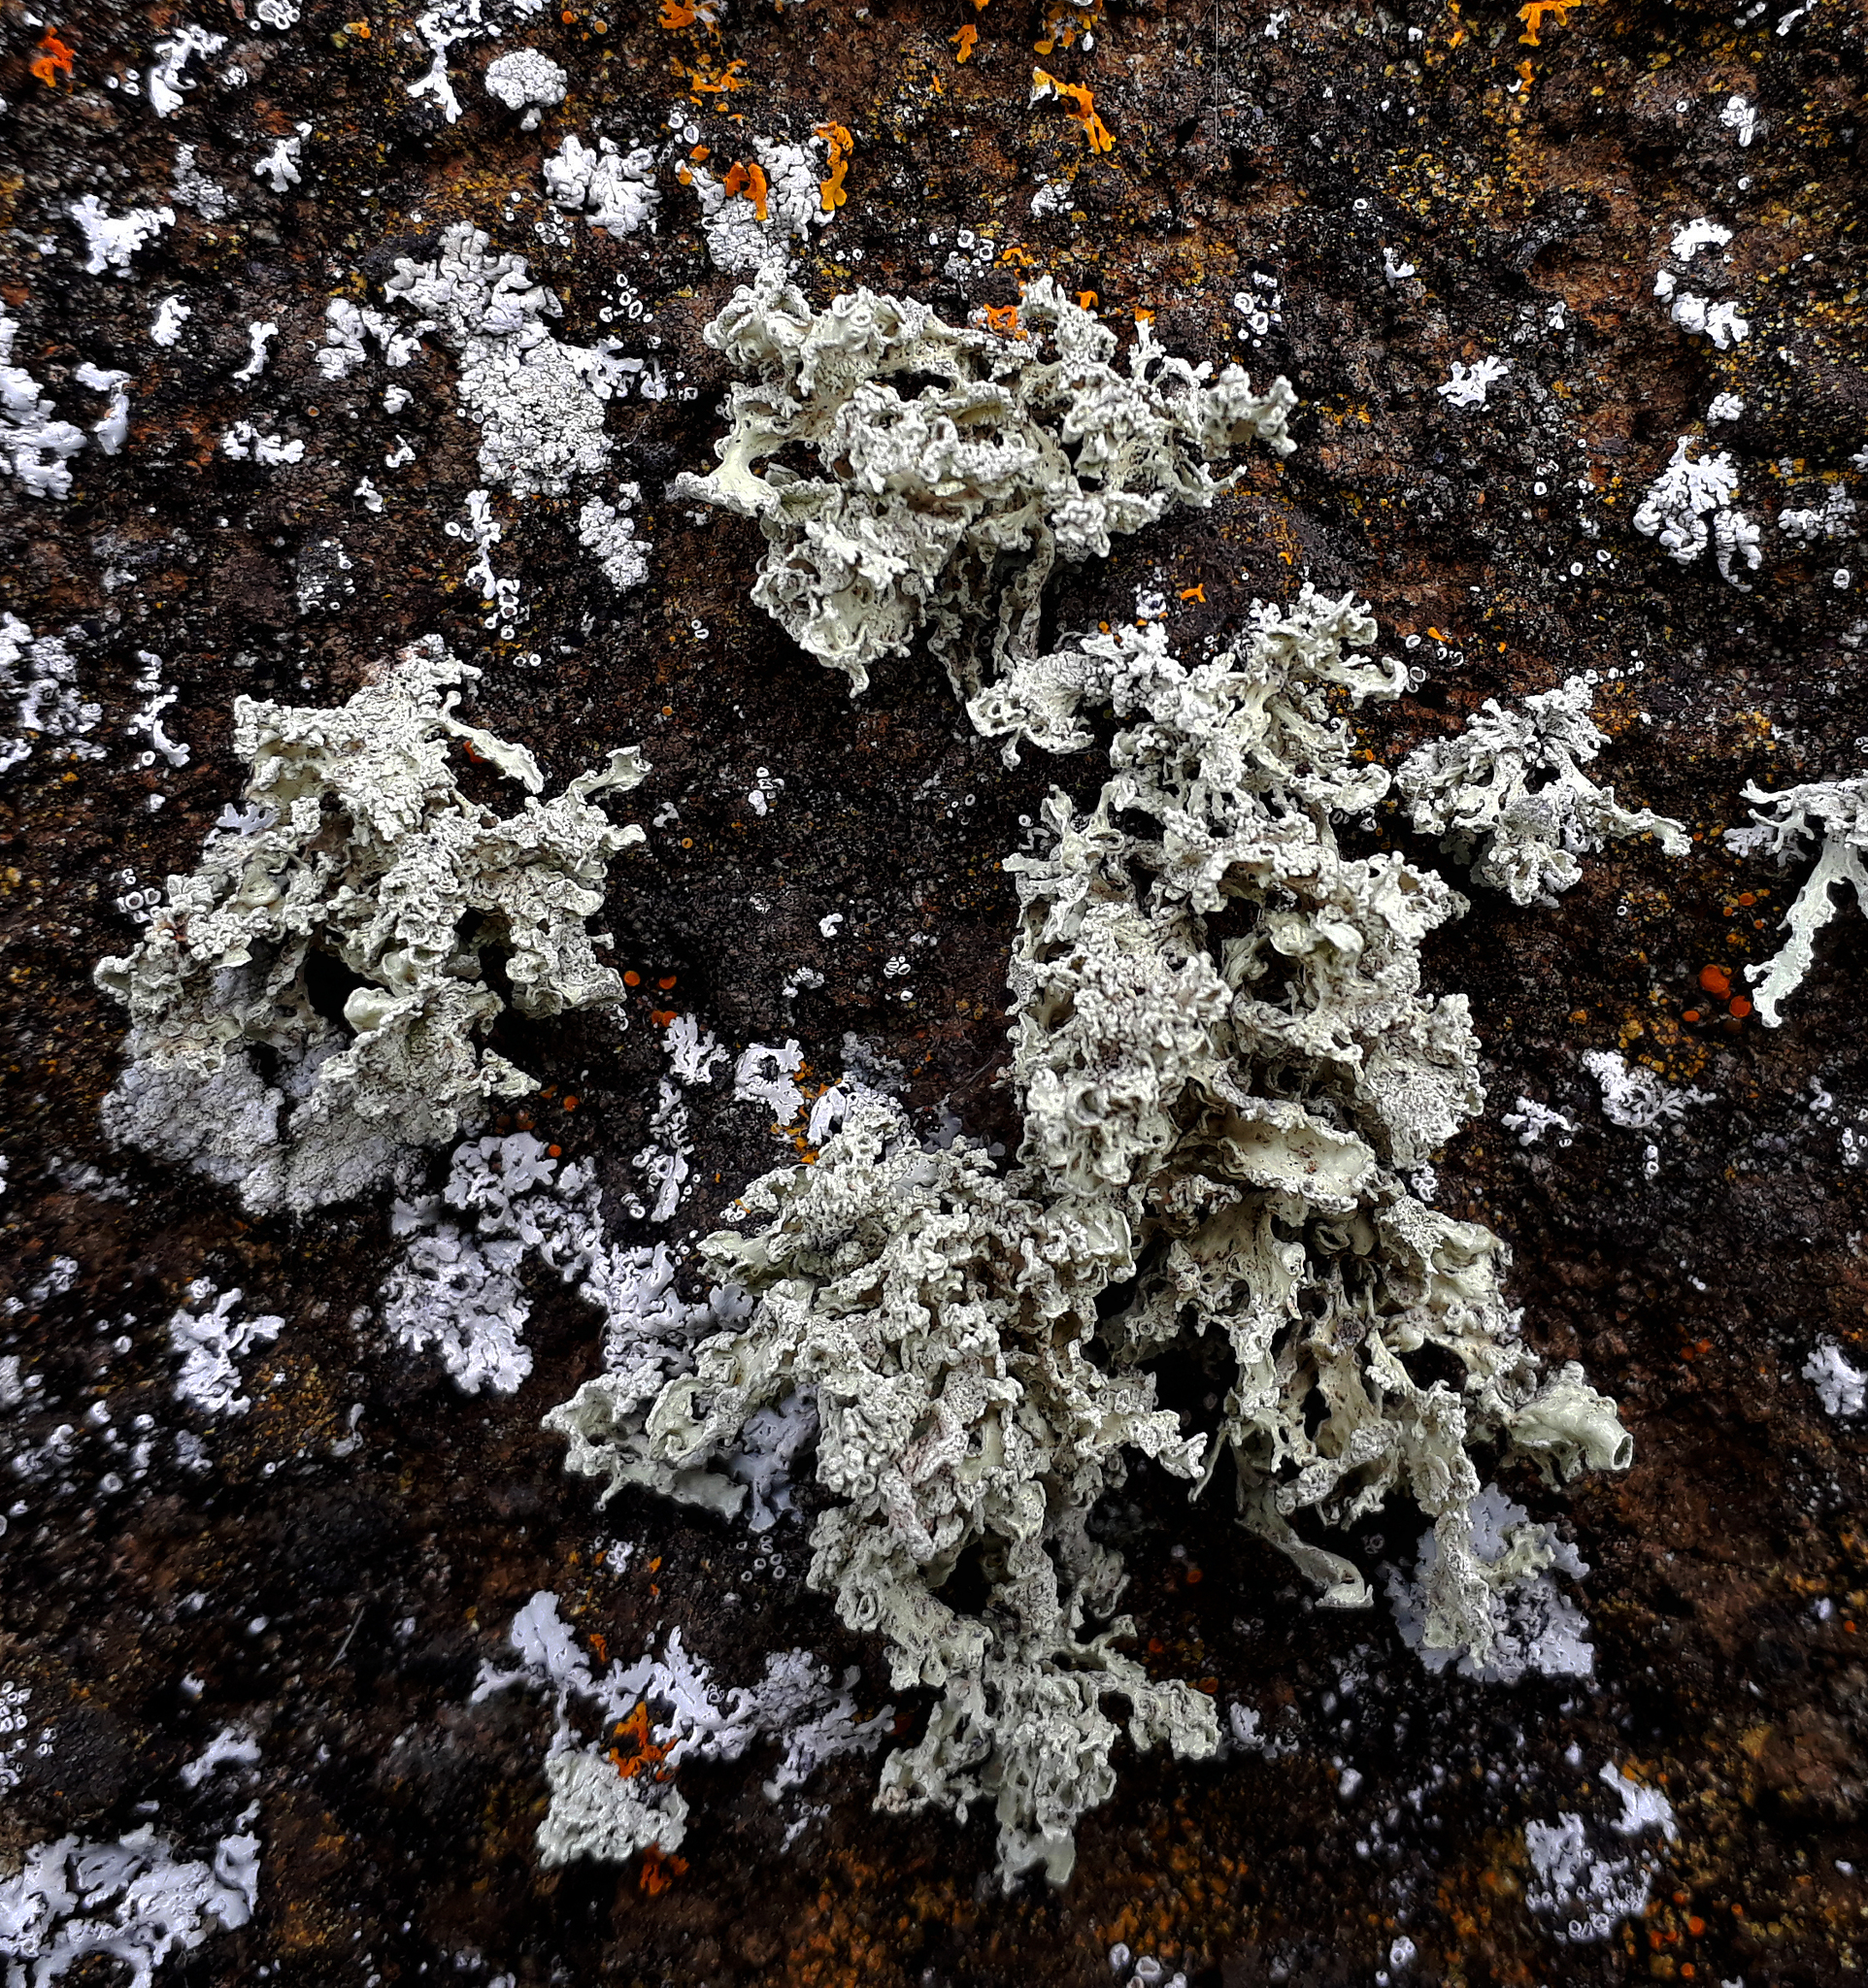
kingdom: Fungi
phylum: Ascomycota
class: Lecanoromycetes
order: Lecanorales
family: Ramalinaceae
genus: Ramalina
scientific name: Ramalina canariensis
